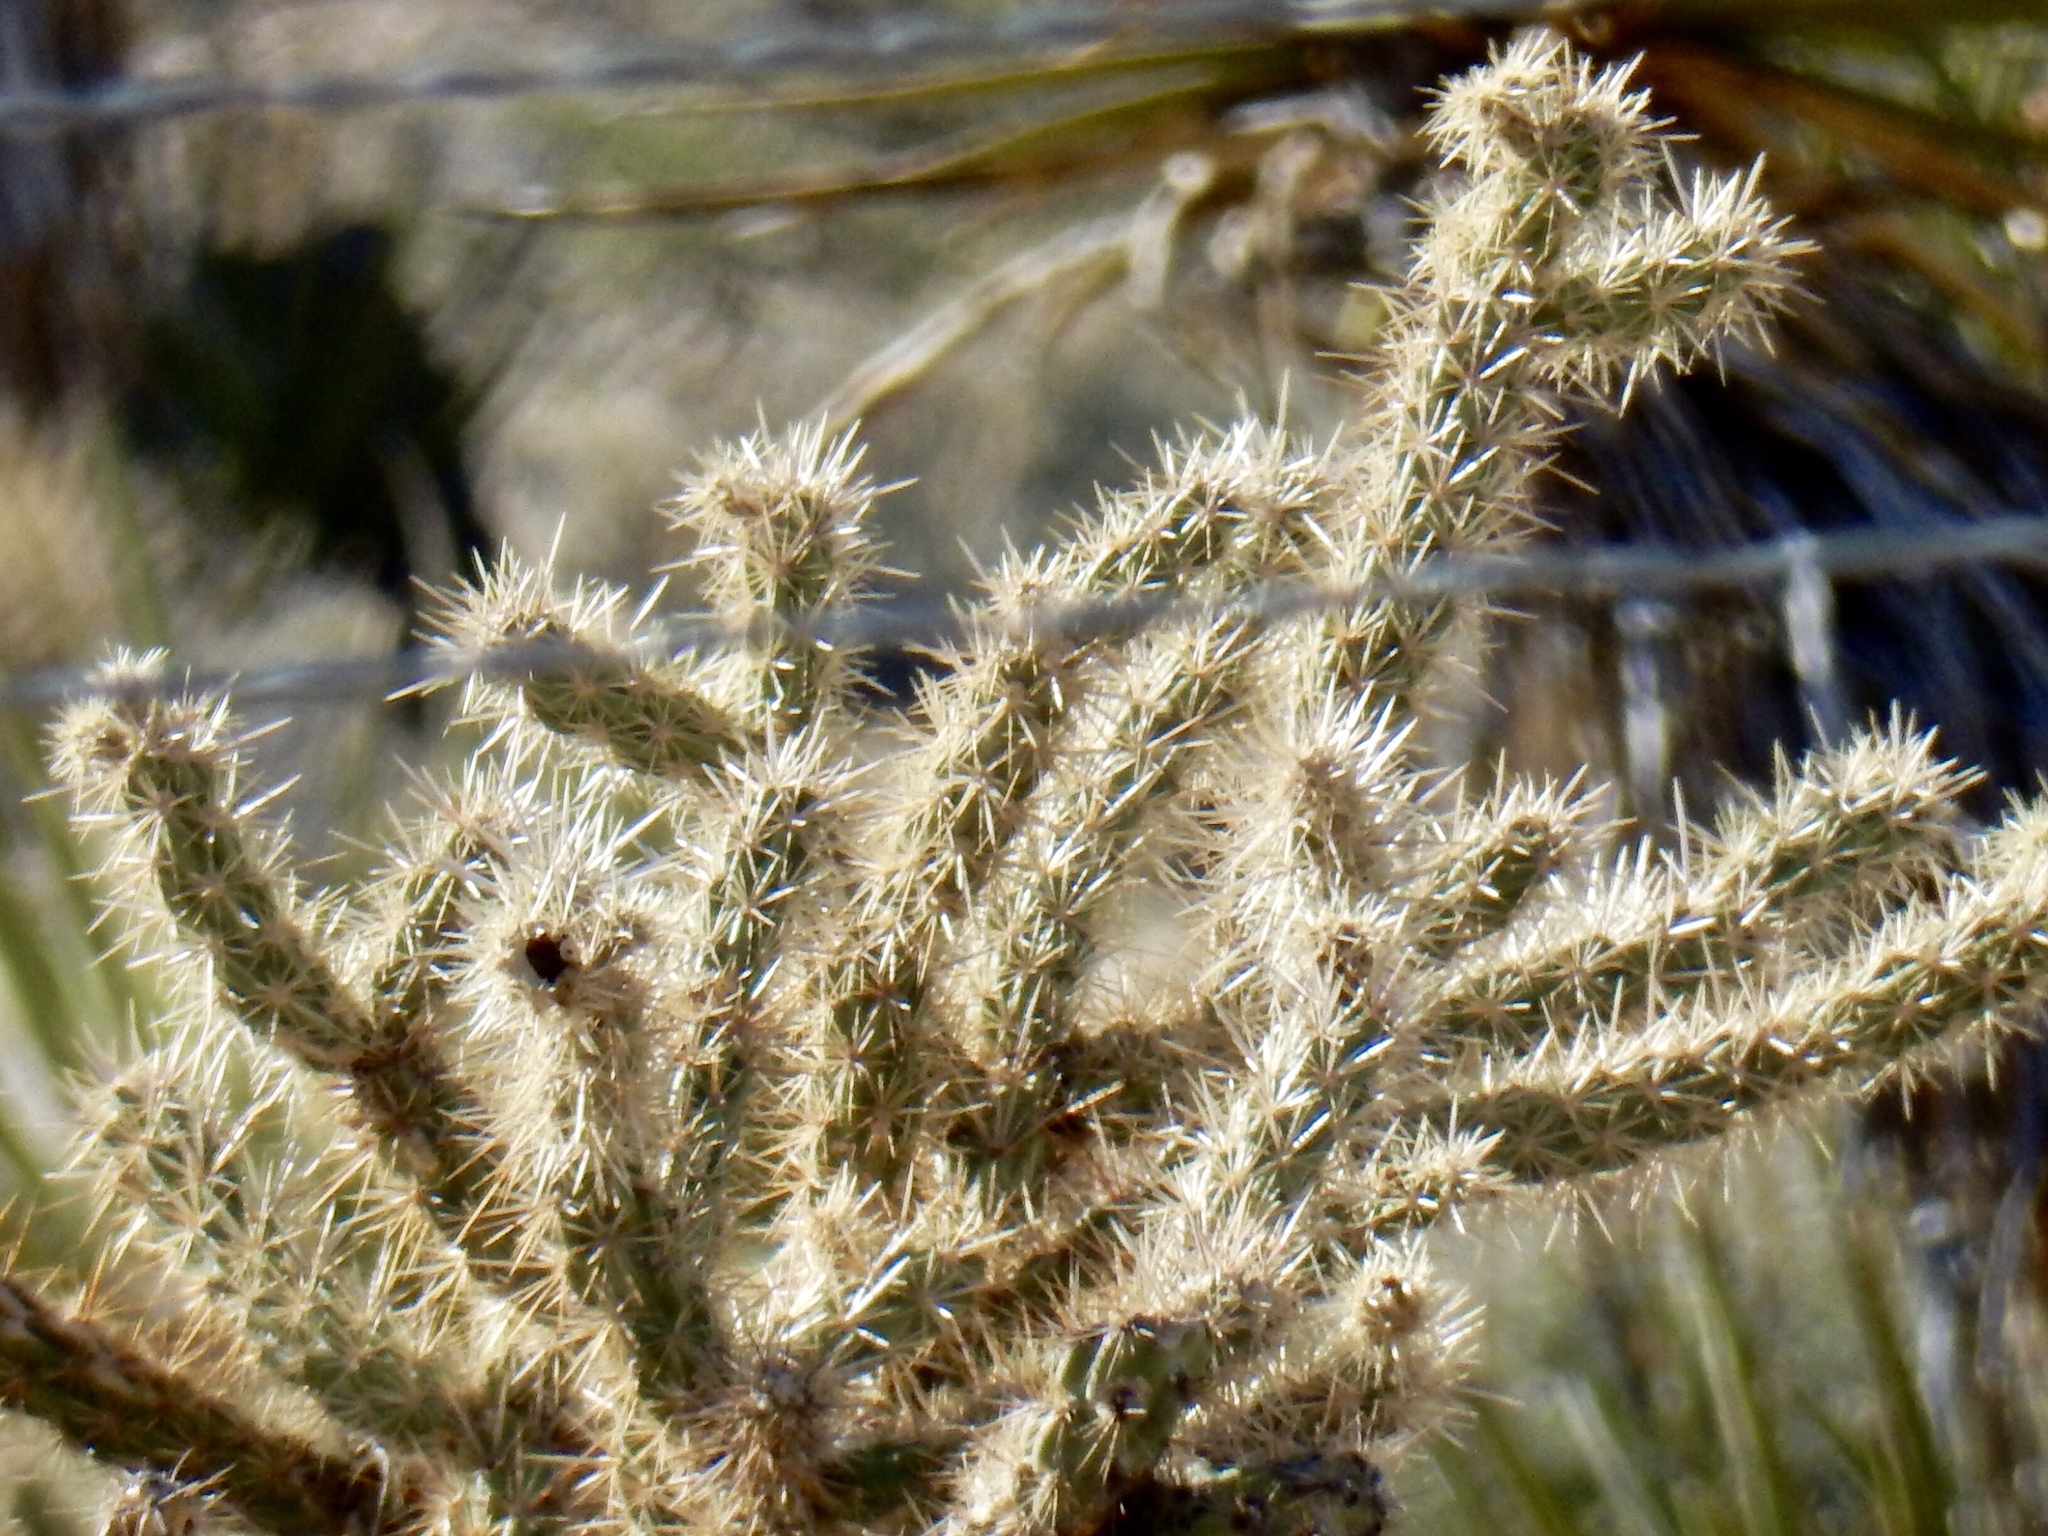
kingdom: Plantae
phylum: Tracheophyta
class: Magnoliopsida
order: Caryophyllales
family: Cactaceae
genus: Cylindropuntia
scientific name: Cylindropuntia echinocarpa
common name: Ground cholla
